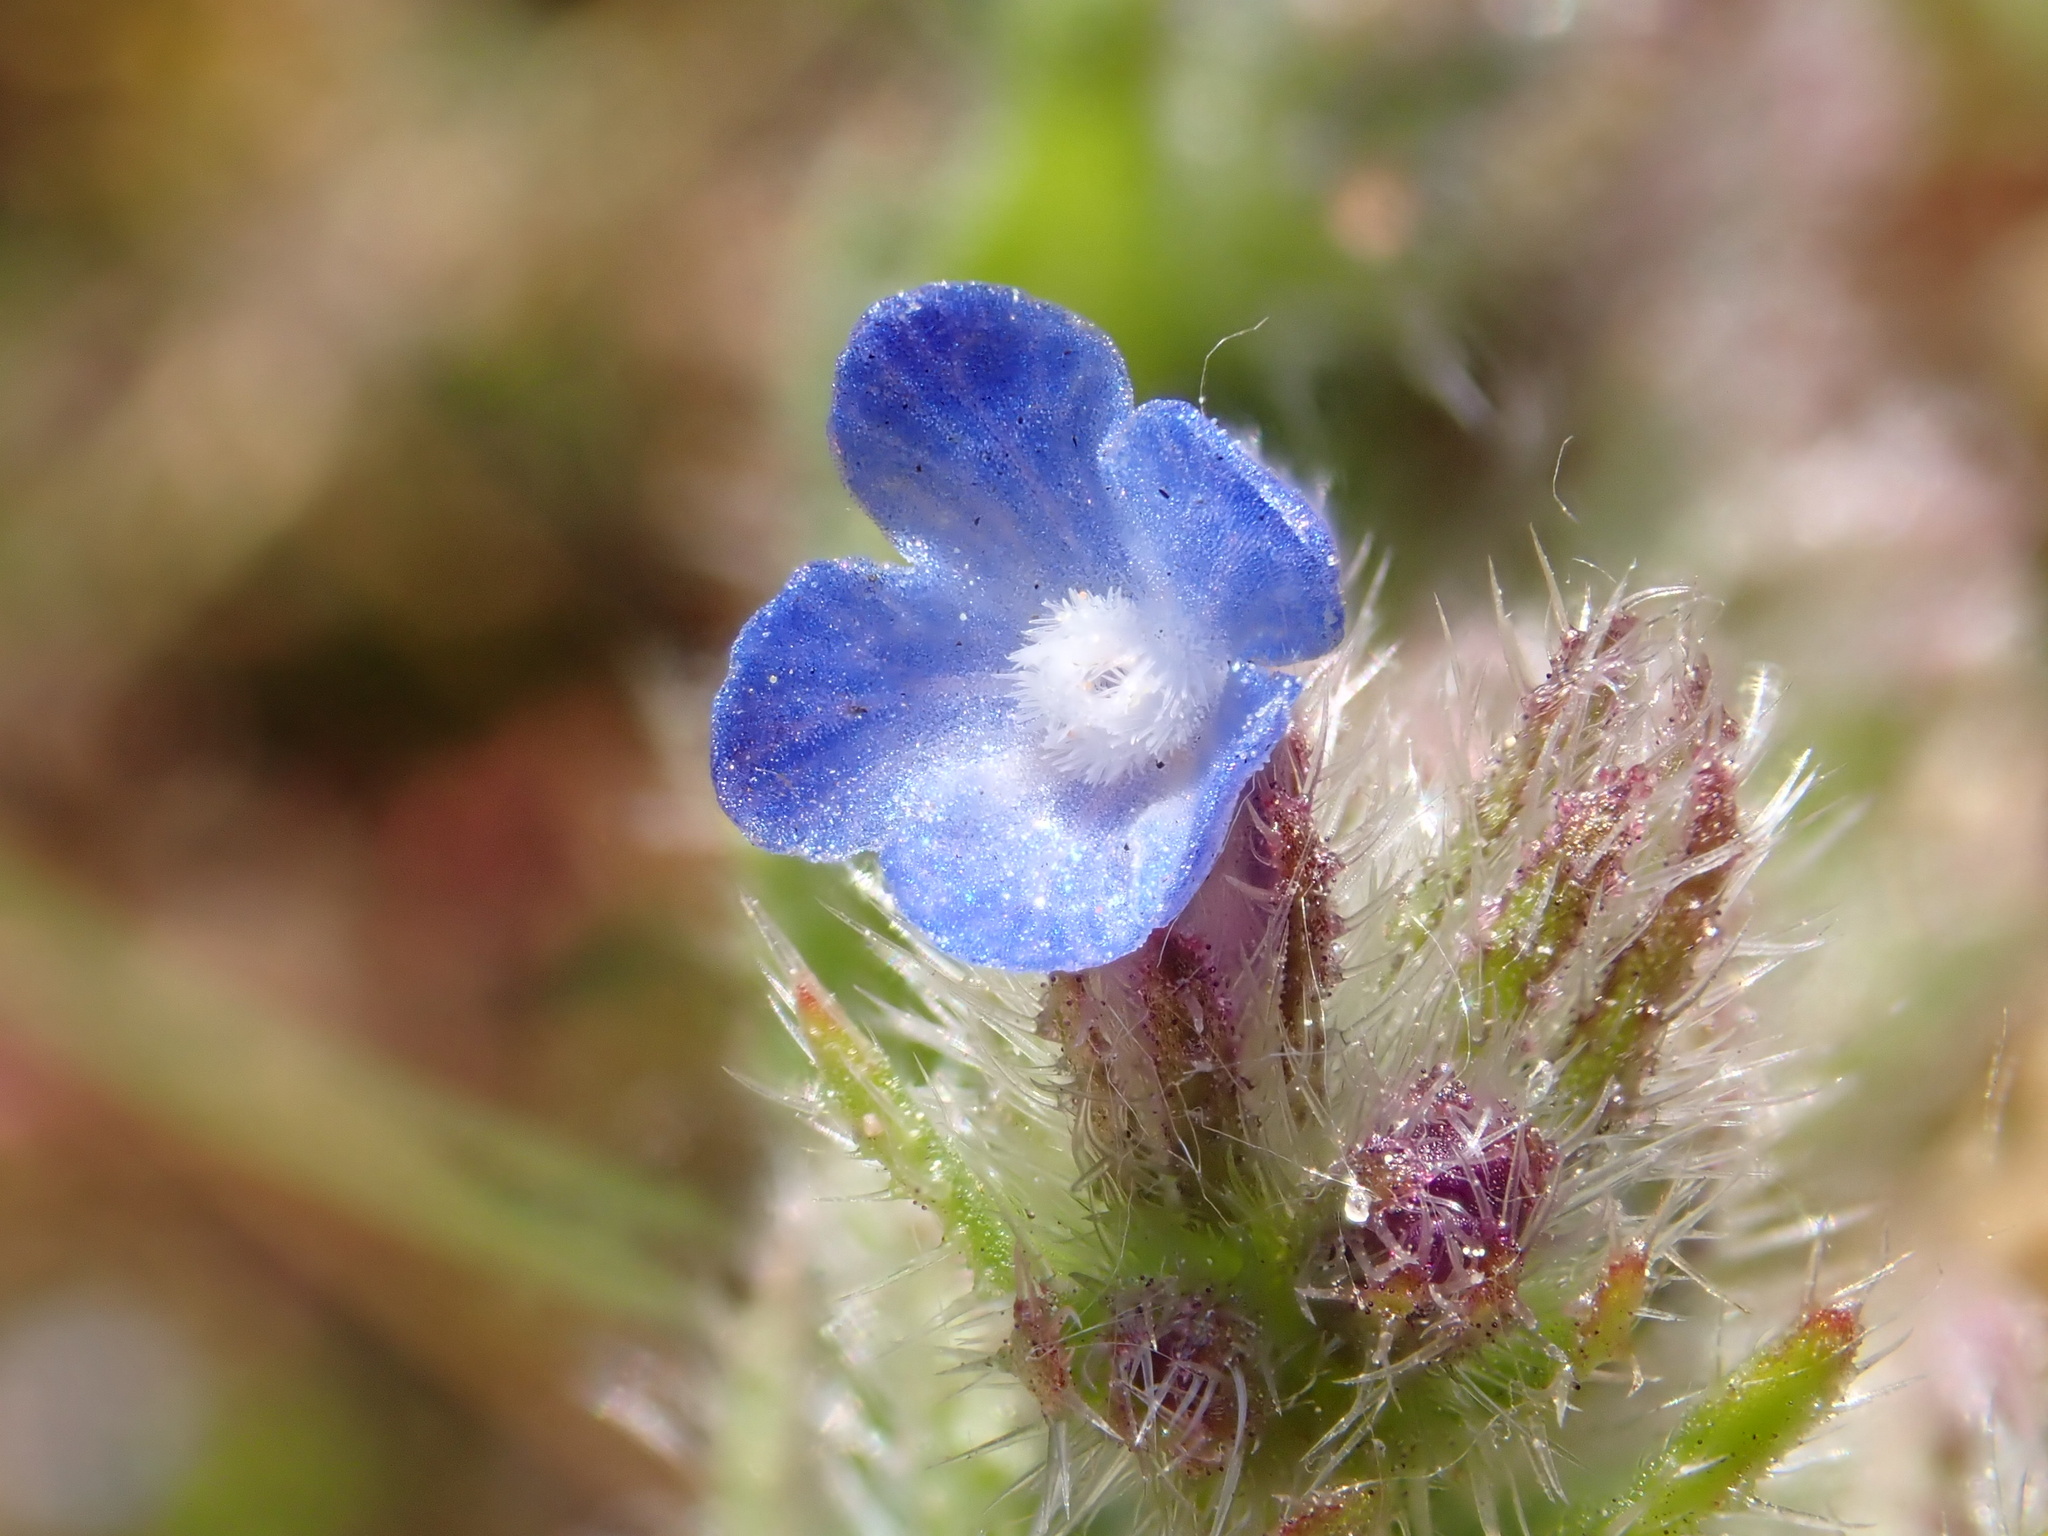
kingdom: Plantae
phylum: Tracheophyta
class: Magnoliopsida
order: Boraginales
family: Boraginaceae
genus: Lycopsis
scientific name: Lycopsis arvensis
